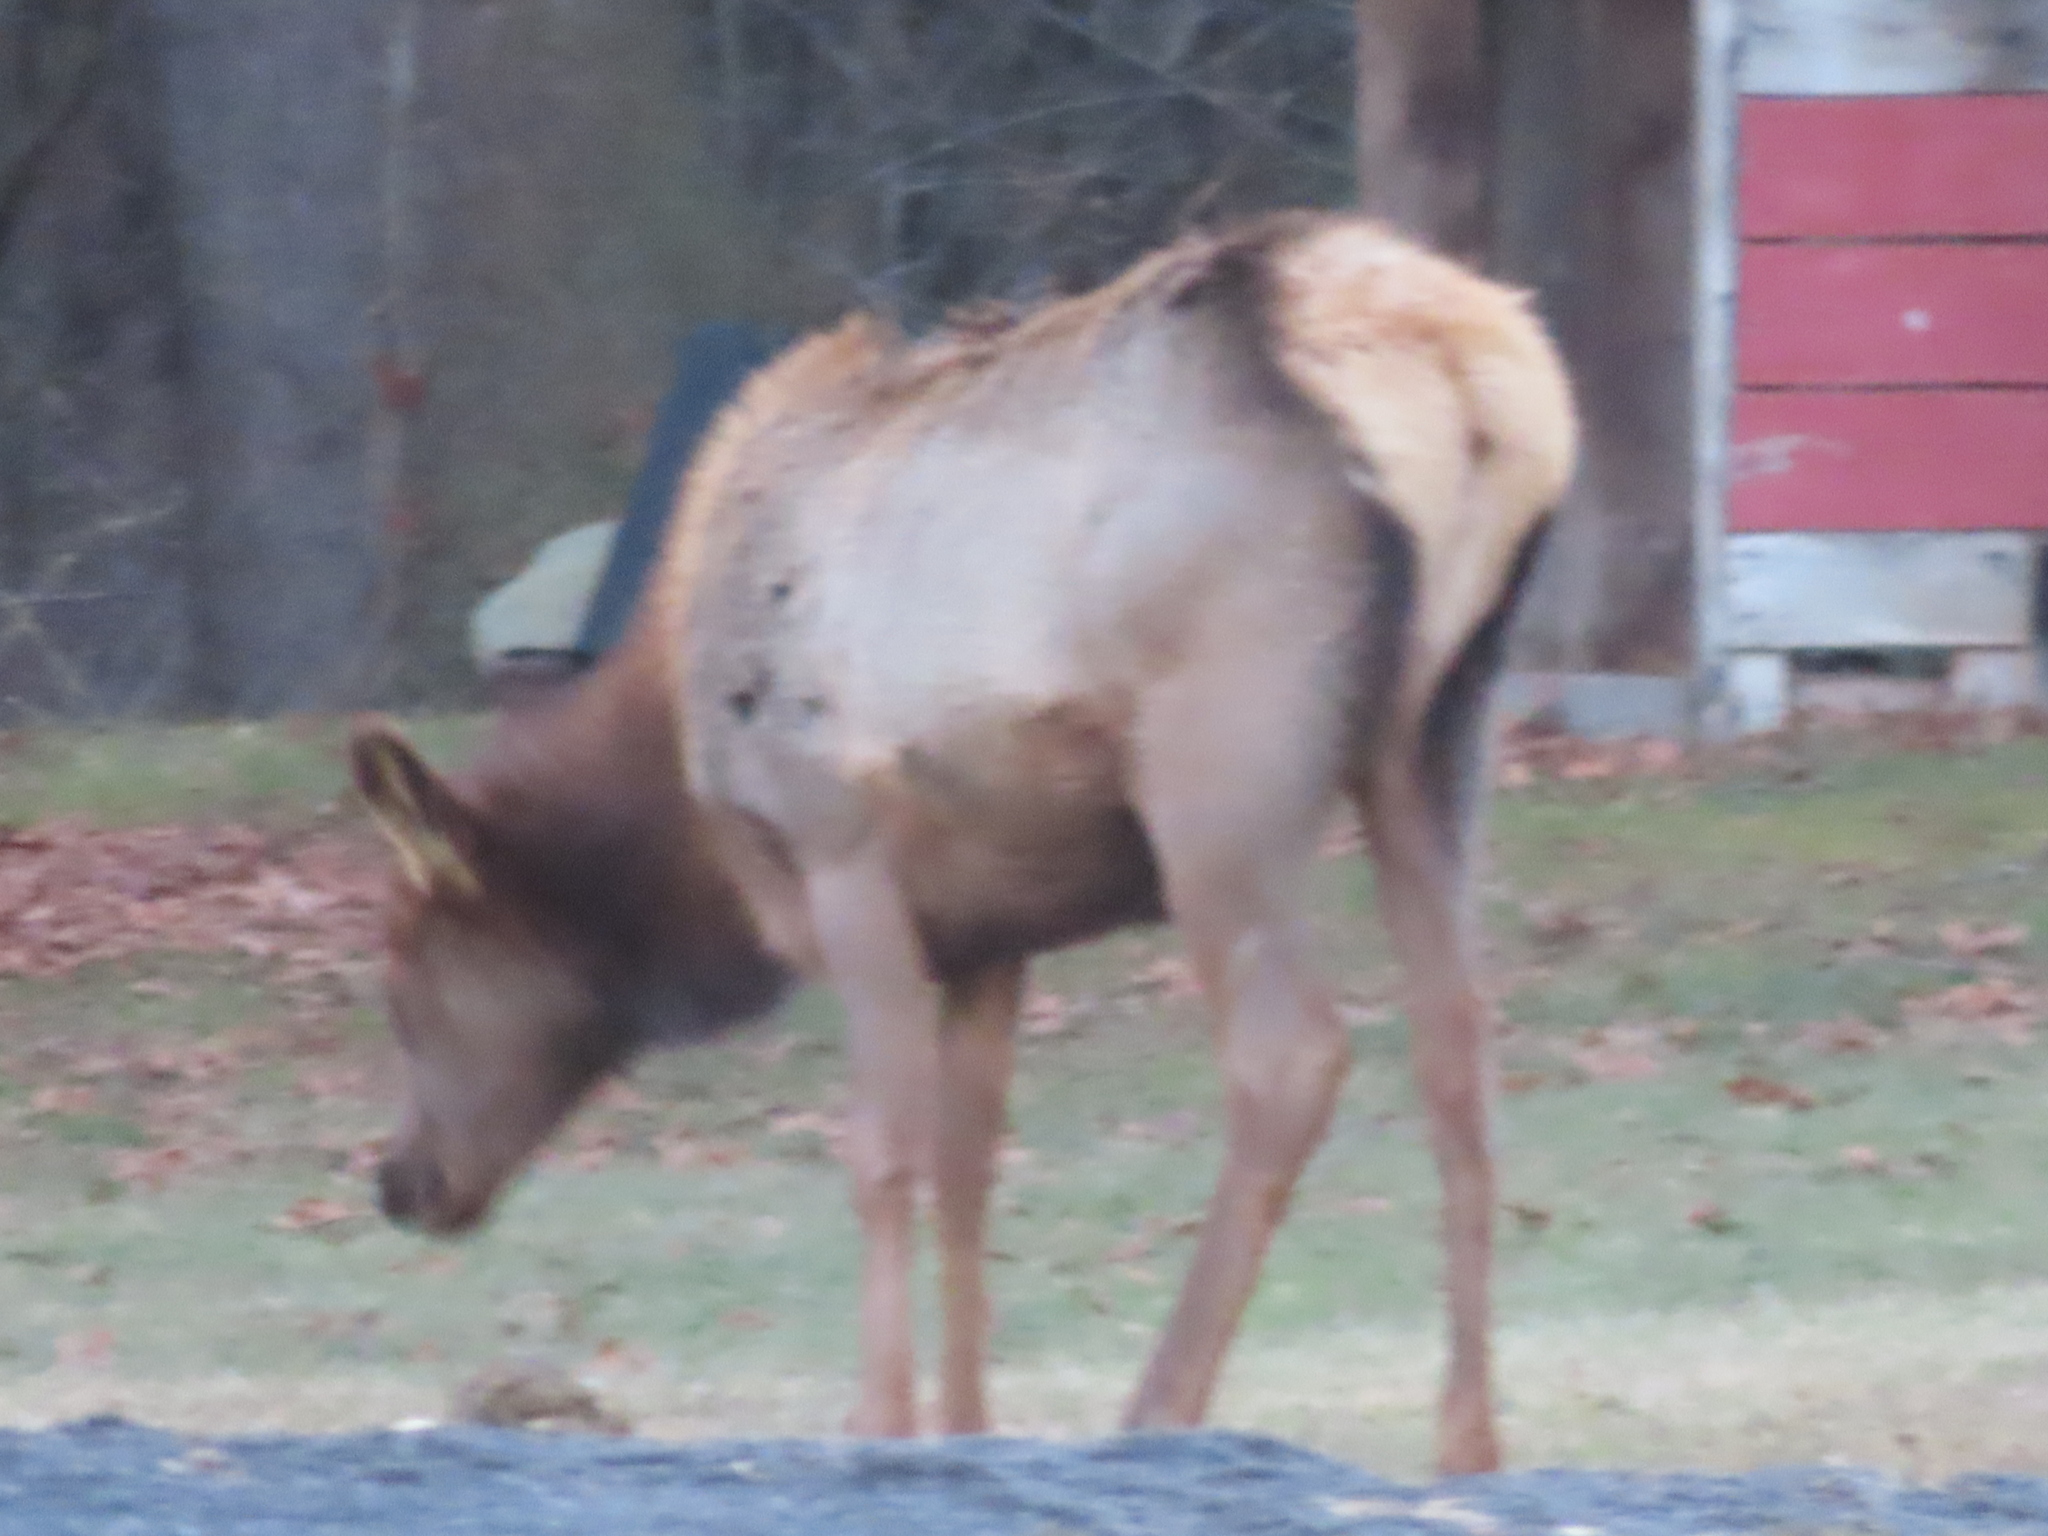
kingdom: Animalia
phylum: Chordata
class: Mammalia
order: Artiodactyla
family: Cervidae
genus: Cervus
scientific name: Cervus elaphus
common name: Red deer
